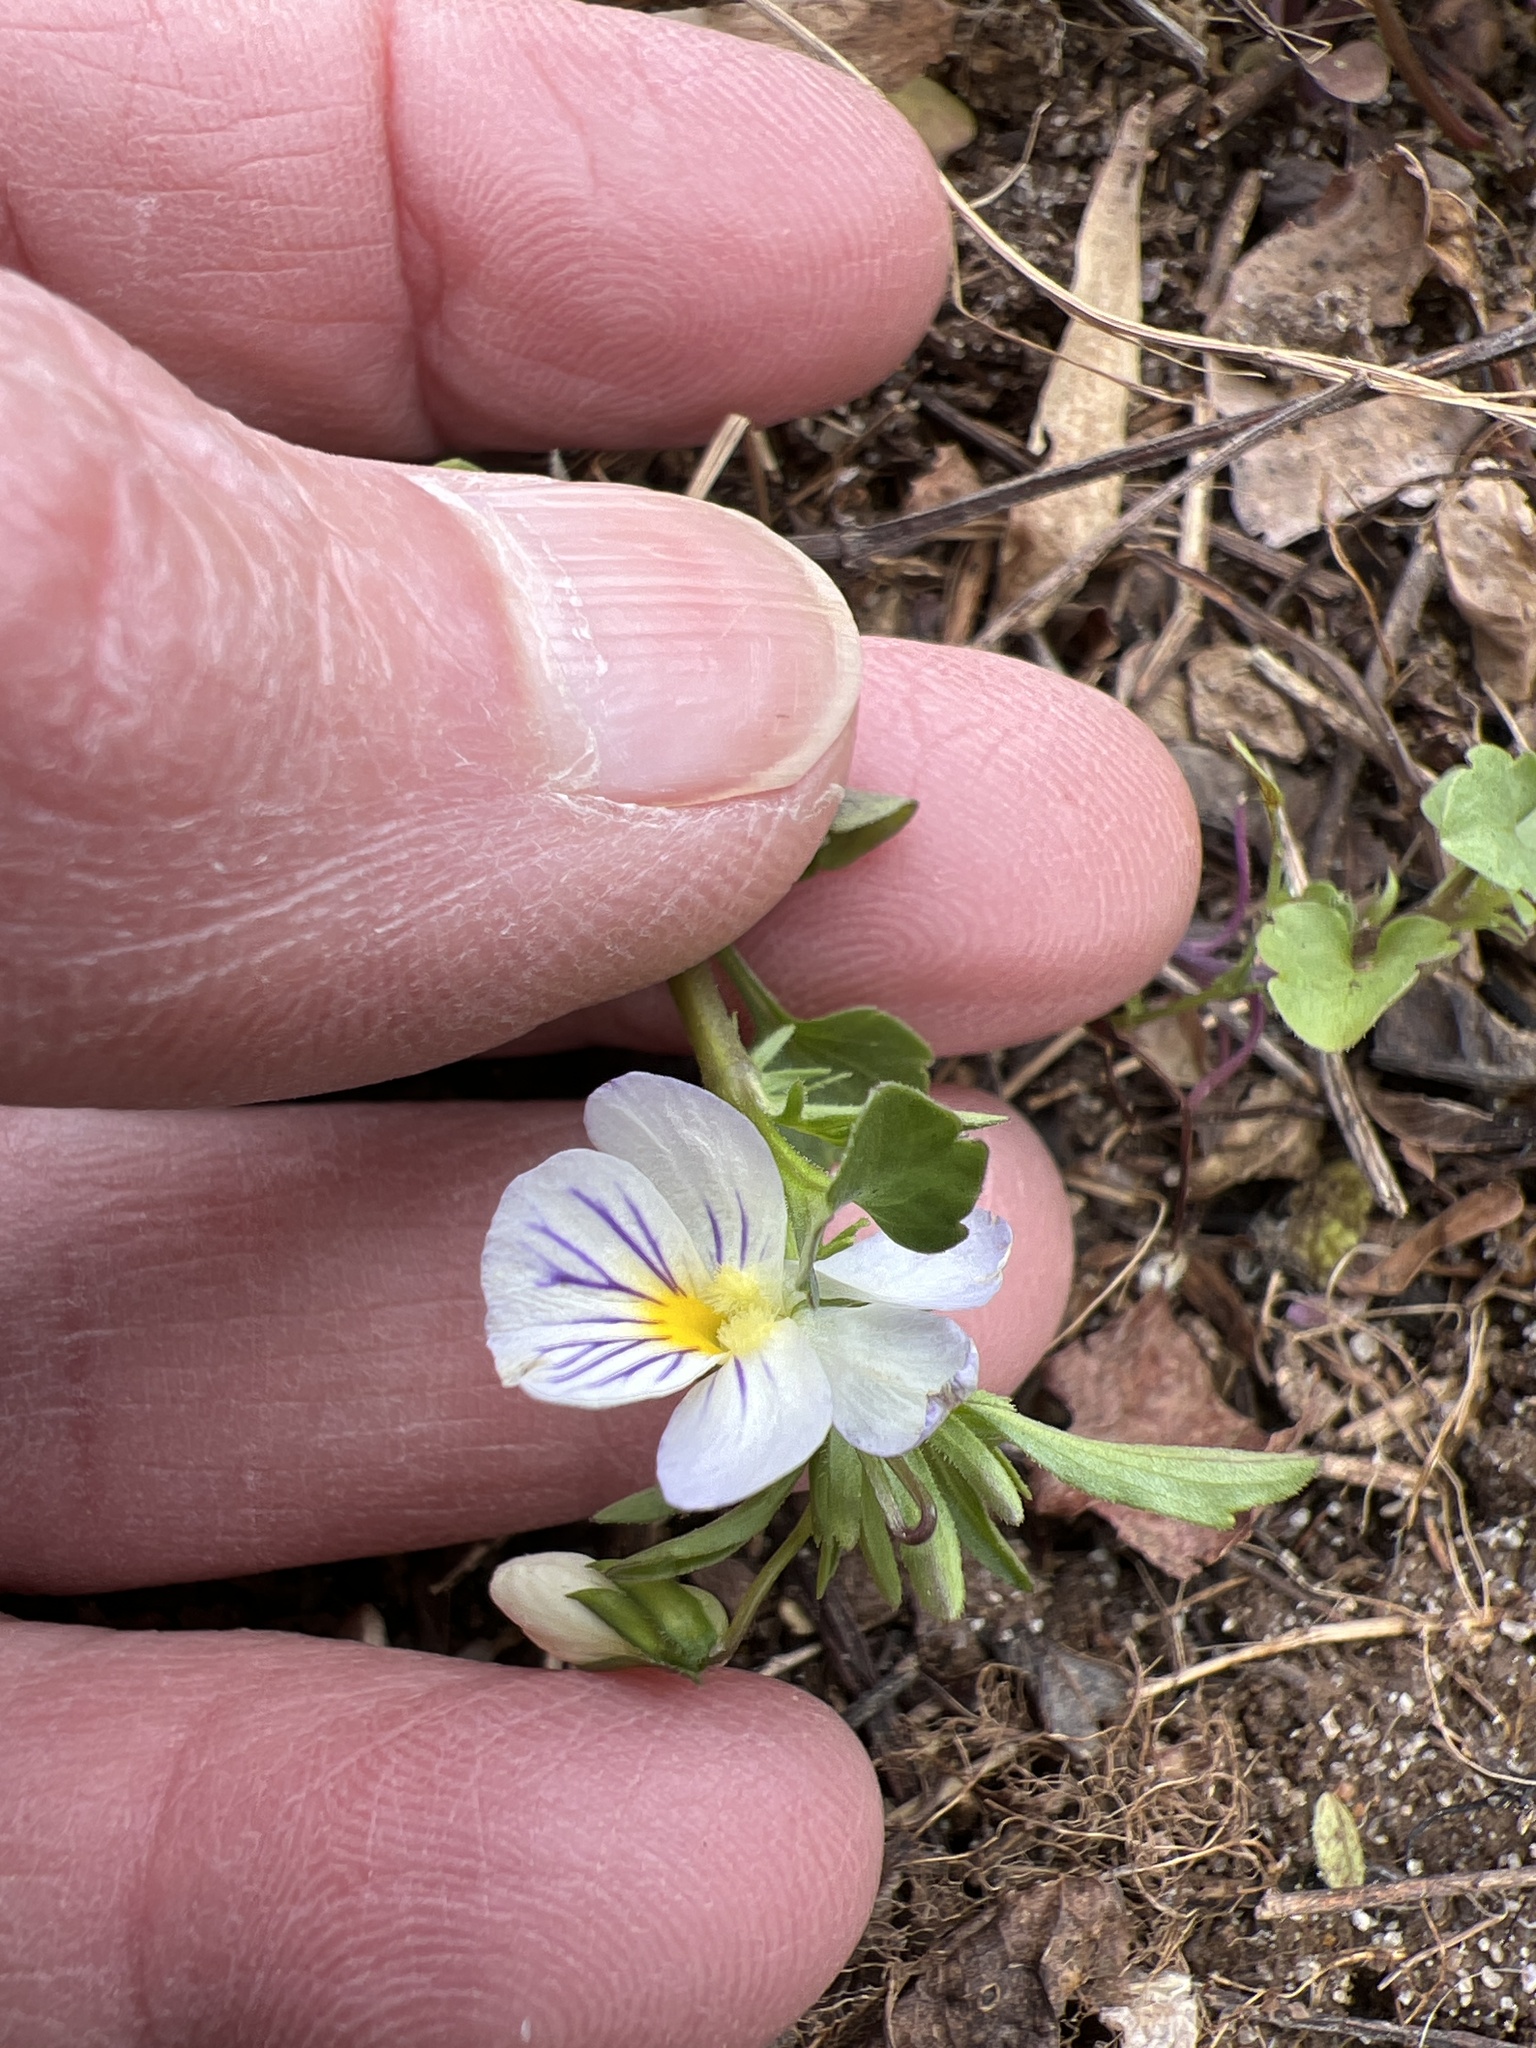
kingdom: Plantae
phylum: Tracheophyta
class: Magnoliopsida
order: Malpighiales
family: Violaceae
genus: Viola
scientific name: Viola rafinesquei
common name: American field pansy
